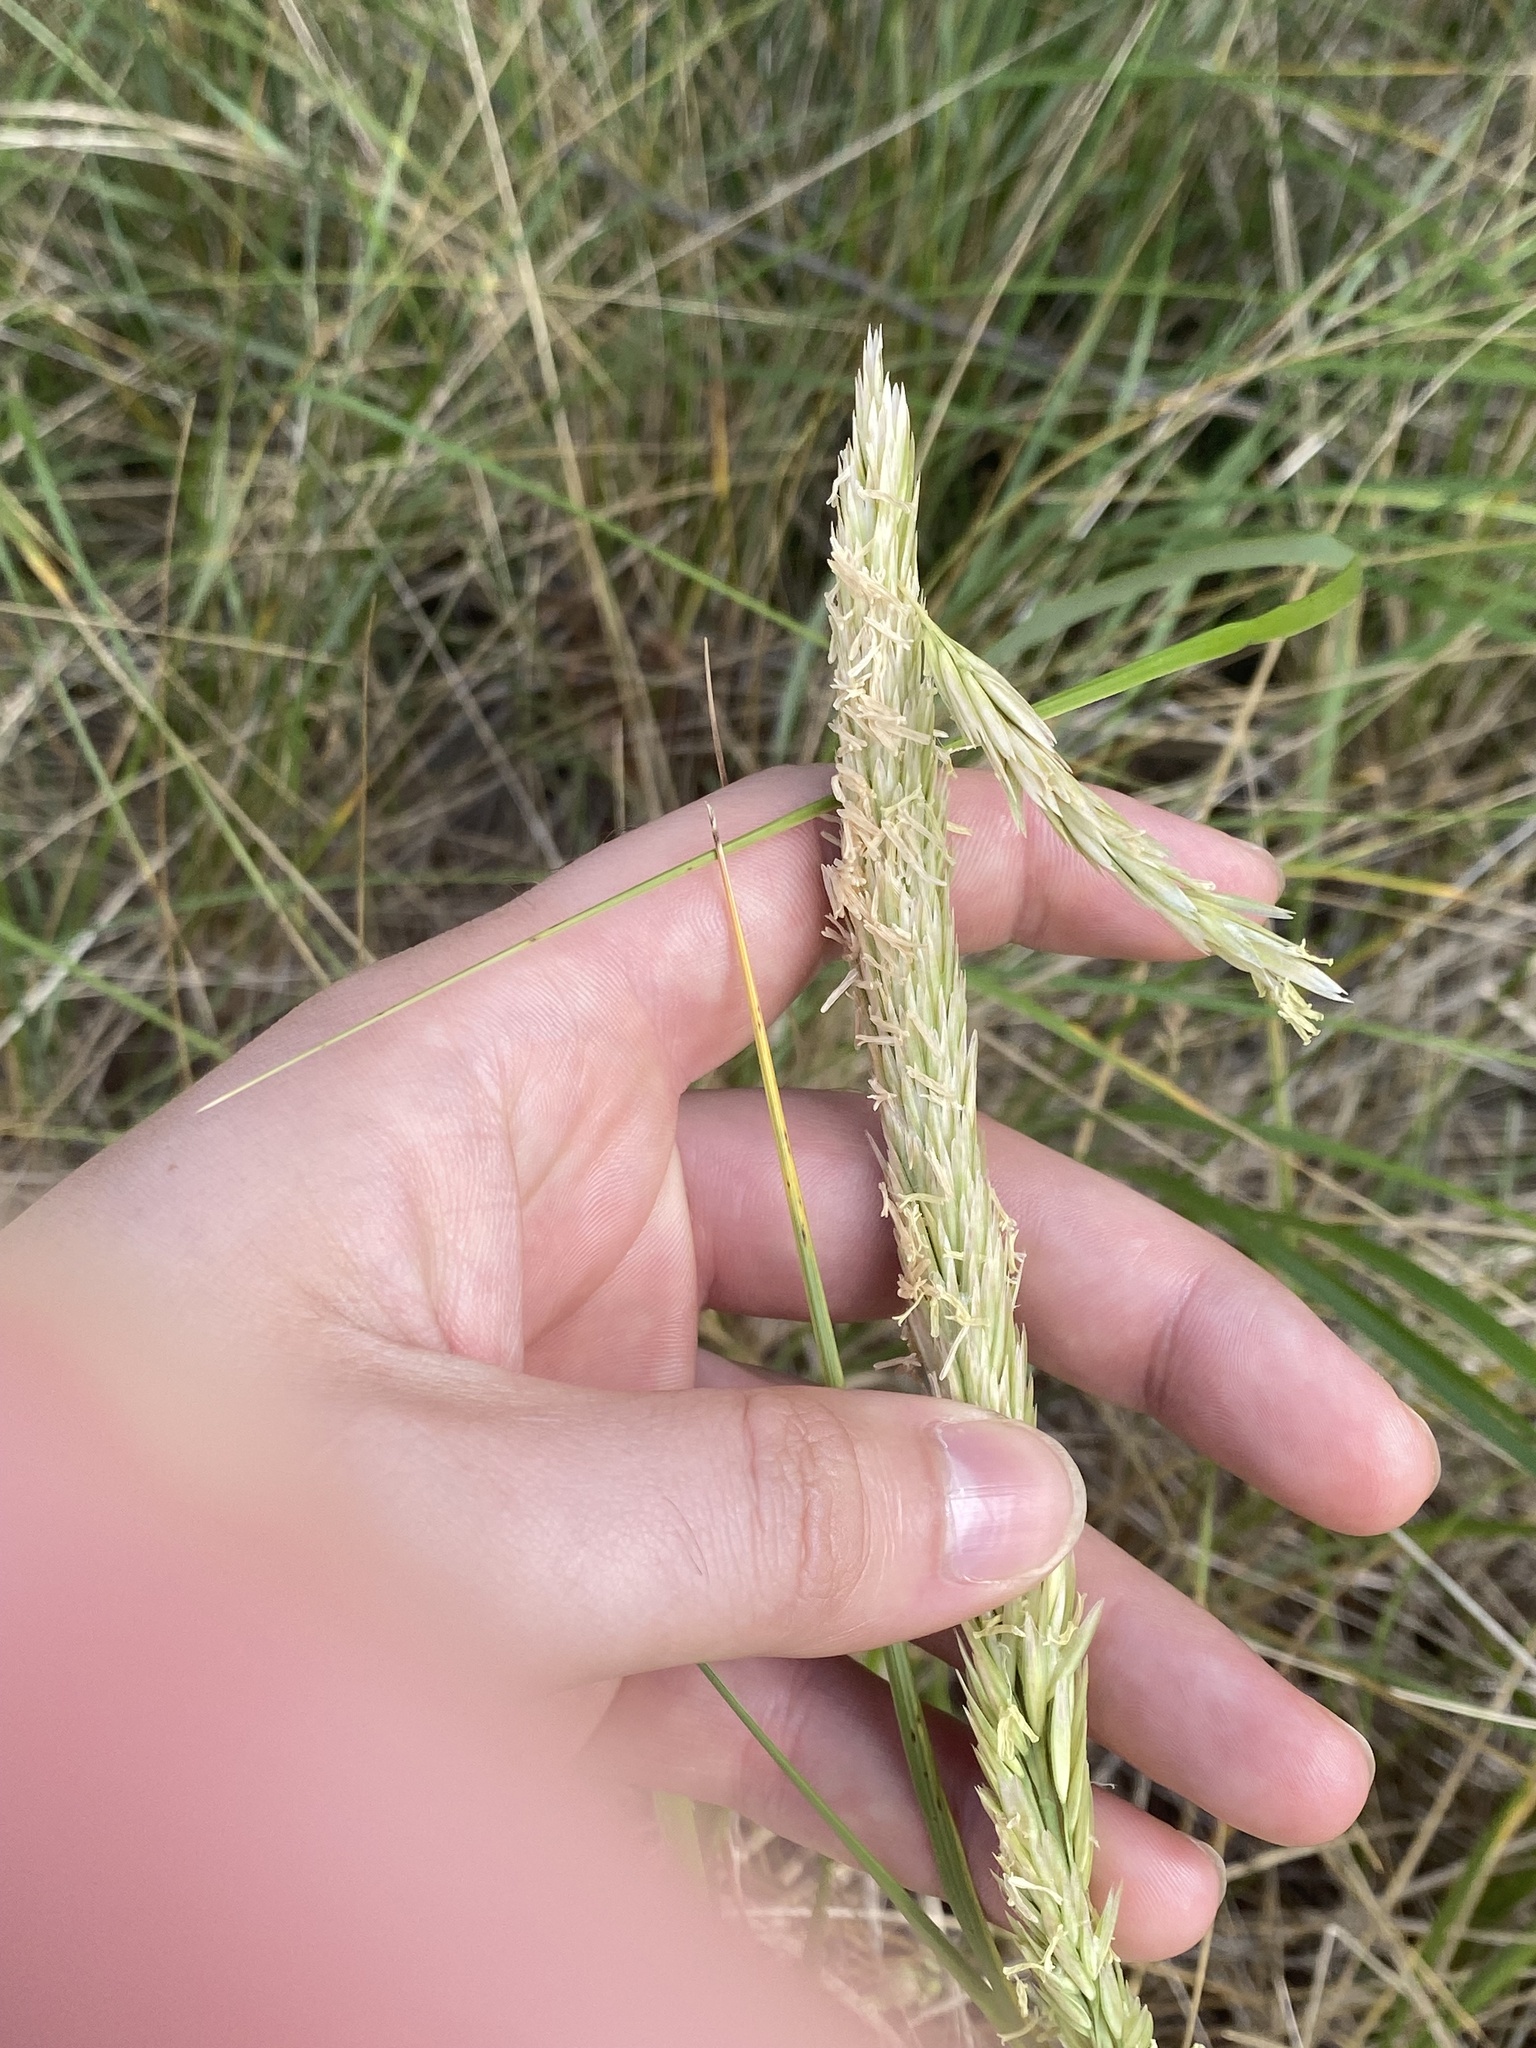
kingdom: Plantae
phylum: Tracheophyta
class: Liliopsida
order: Poales
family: Poaceae
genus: Calamagrostis
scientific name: Calamagrostis breviligulata
